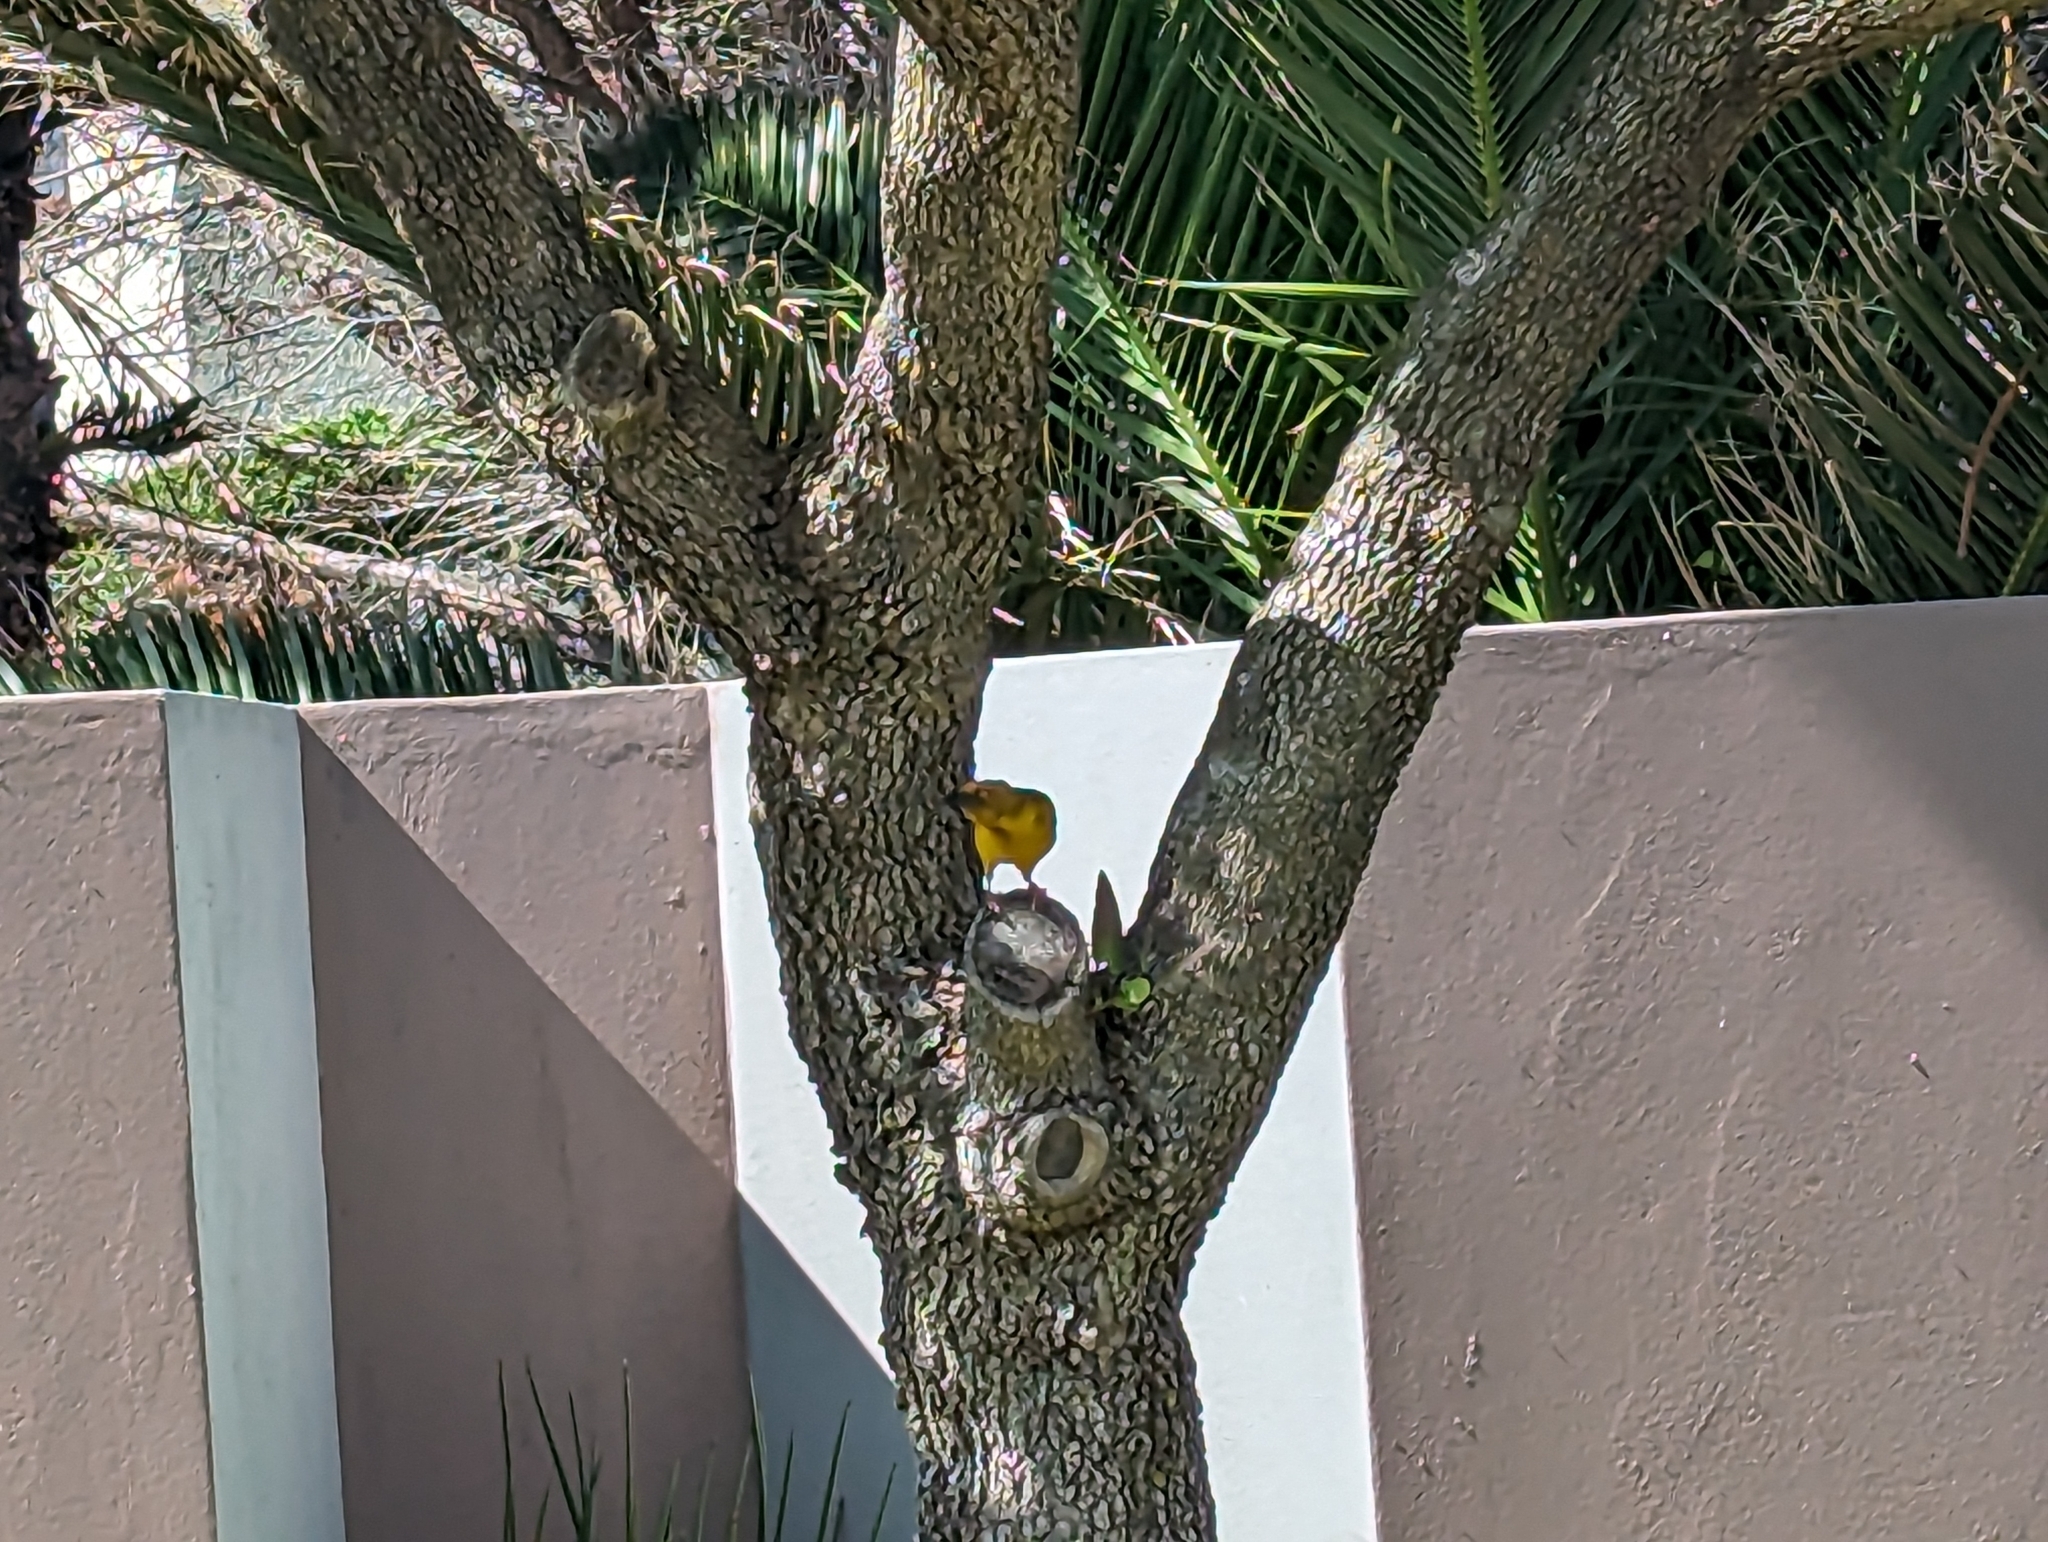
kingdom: Animalia
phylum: Chordata
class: Aves
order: Passeriformes
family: Ploceidae
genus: Ploceus
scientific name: Ploceus capensis
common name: Cape weaver
